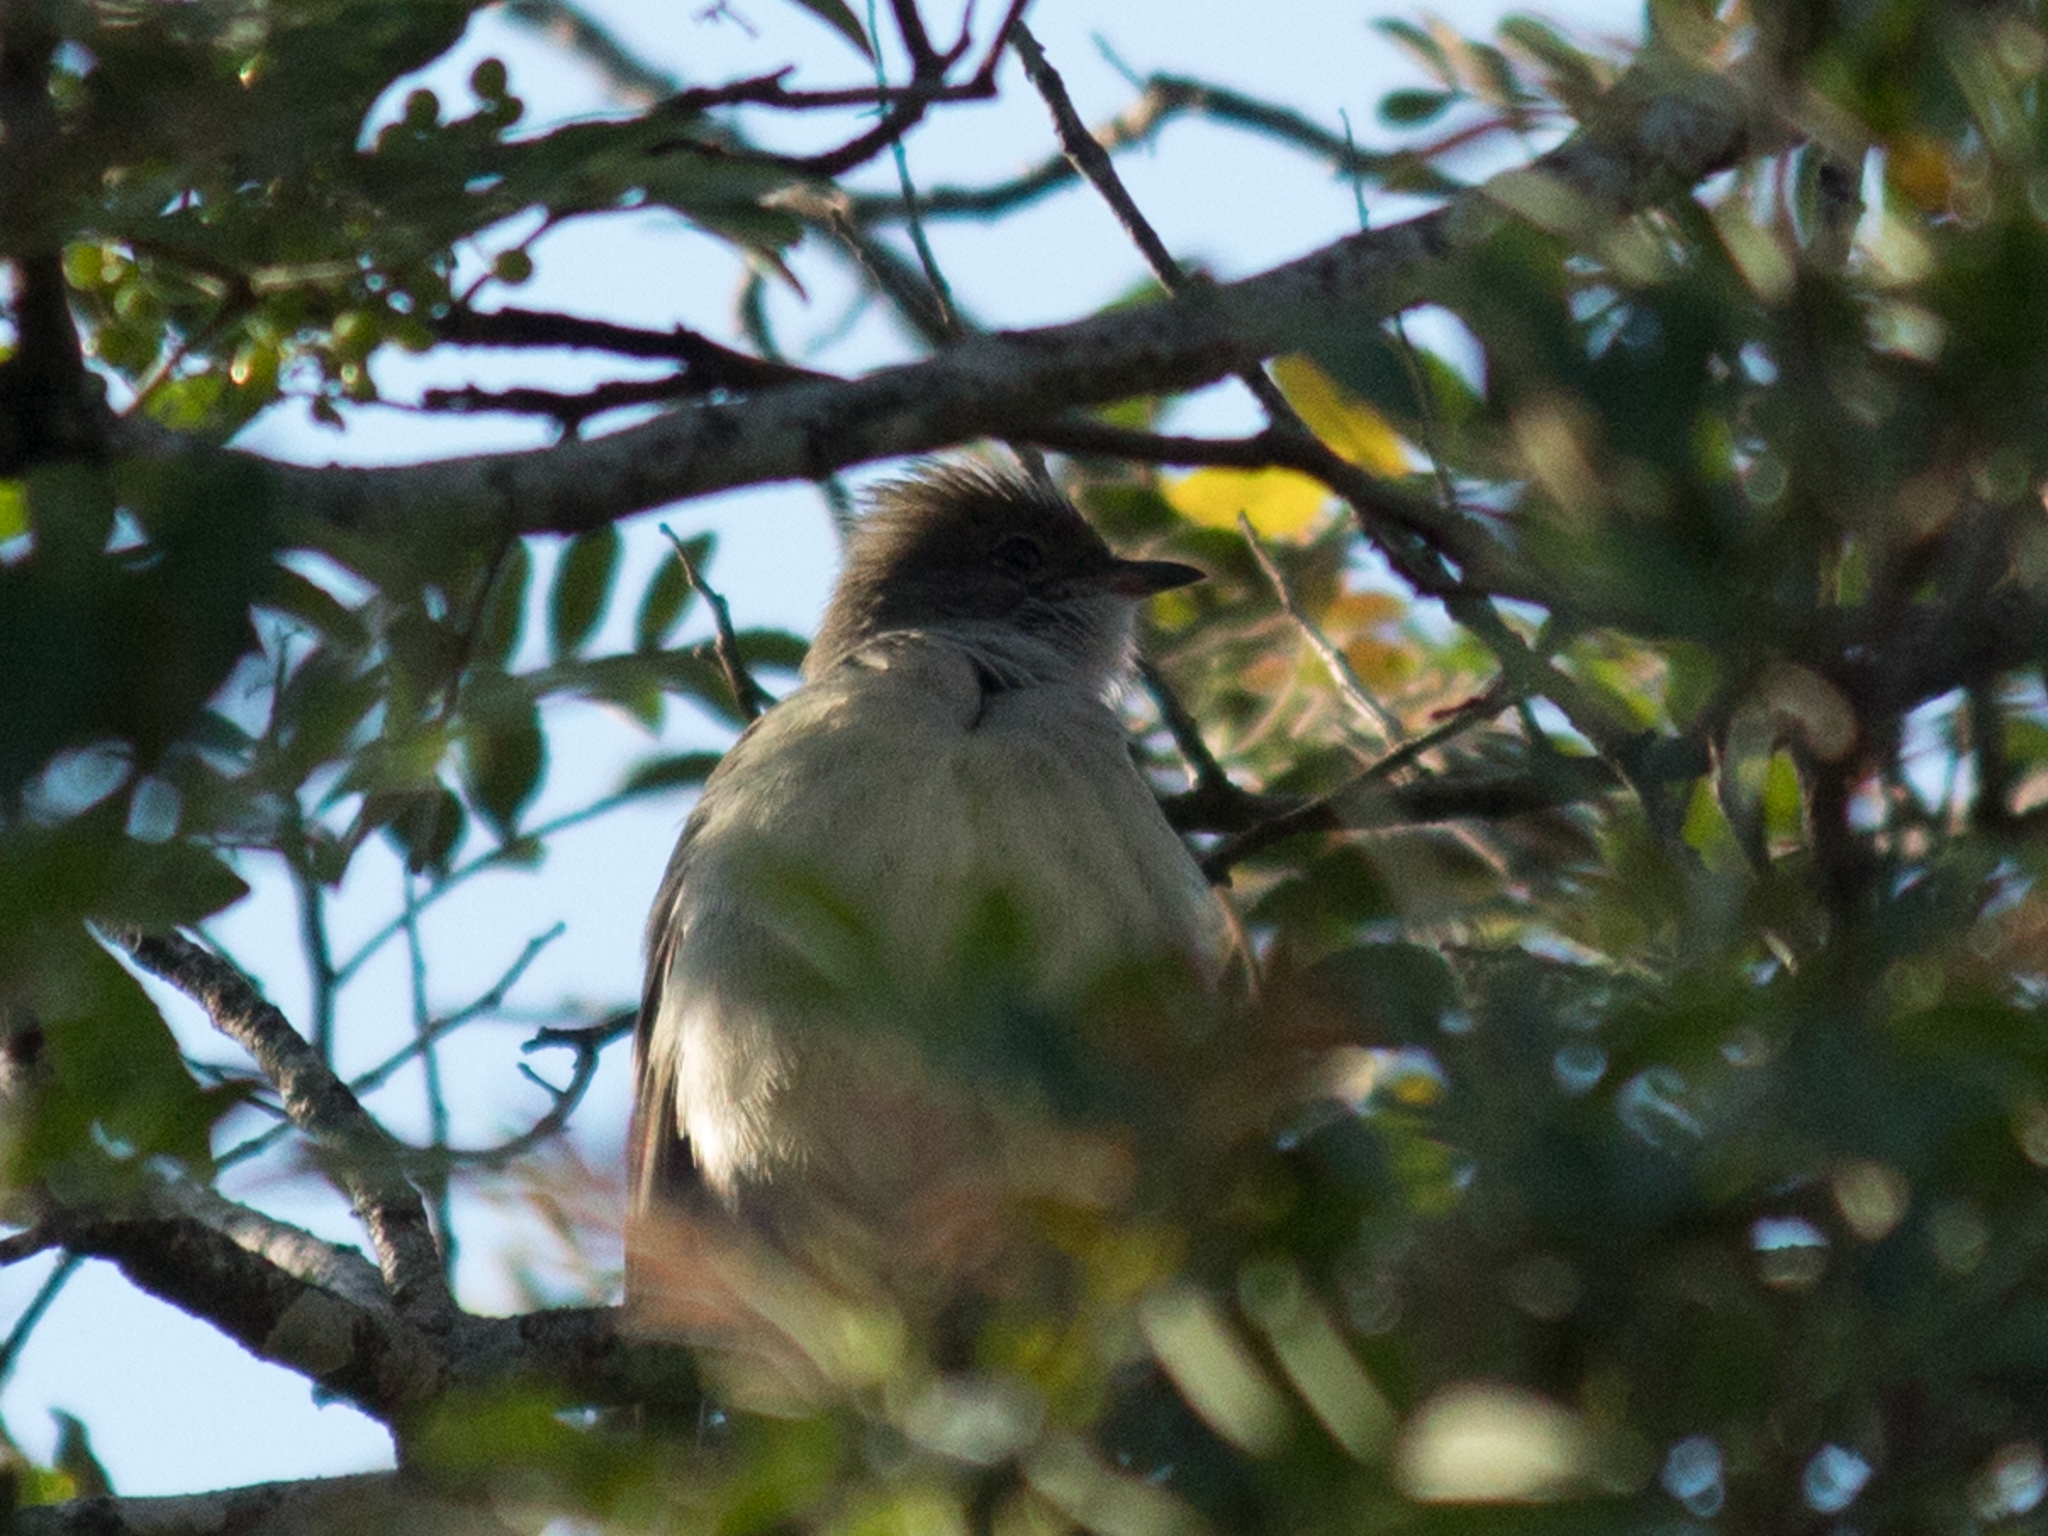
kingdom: Animalia
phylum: Chordata
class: Aves
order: Passeriformes
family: Tyrannidae
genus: Elaenia
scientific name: Elaenia spectabilis
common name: Large elaenia
